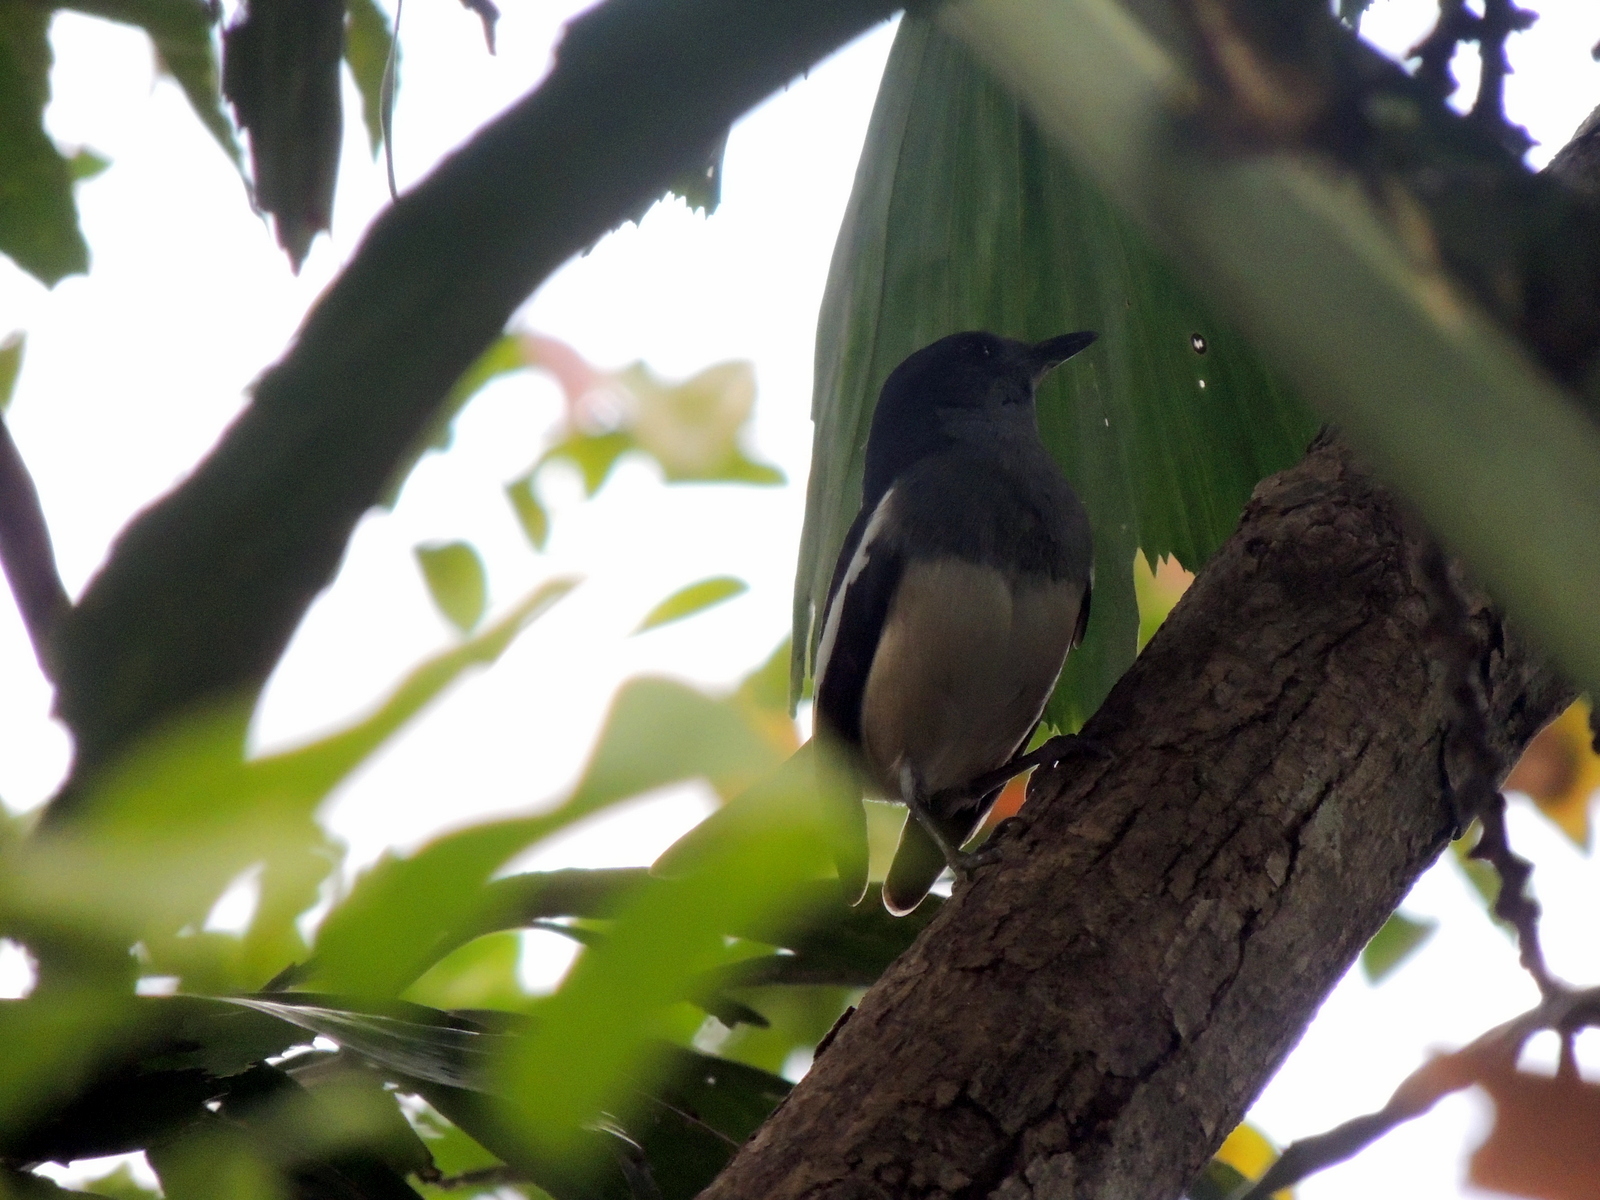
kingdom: Animalia
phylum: Chordata
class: Aves
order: Passeriformes
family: Muscicapidae
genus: Copsychus
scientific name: Copsychus saularis
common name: Oriental magpie-robin
